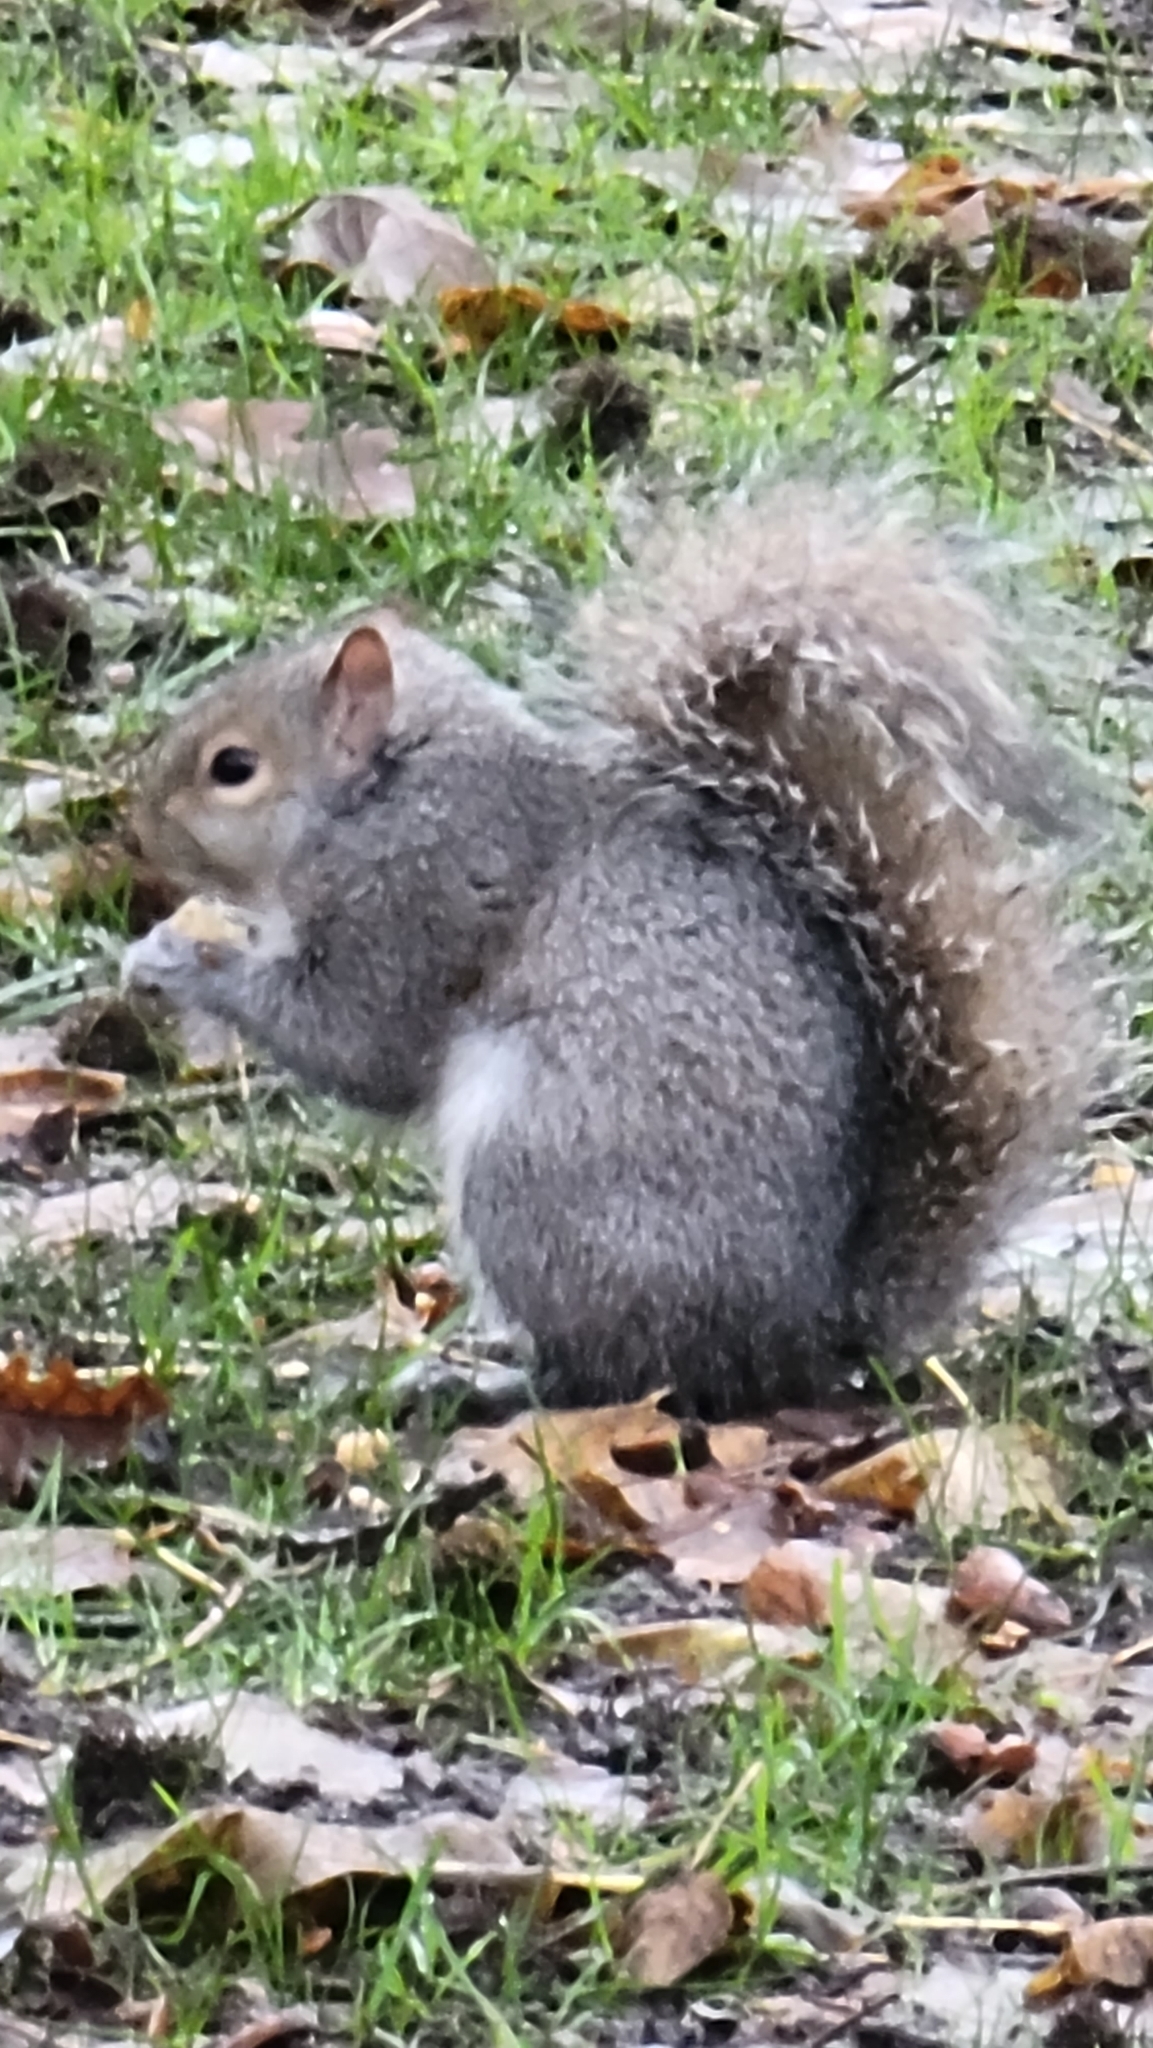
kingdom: Animalia
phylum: Chordata
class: Mammalia
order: Rodentia
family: Sciuridae
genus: Sciurus
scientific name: Sciurus carolinensis
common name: Eastern gray squirrel
